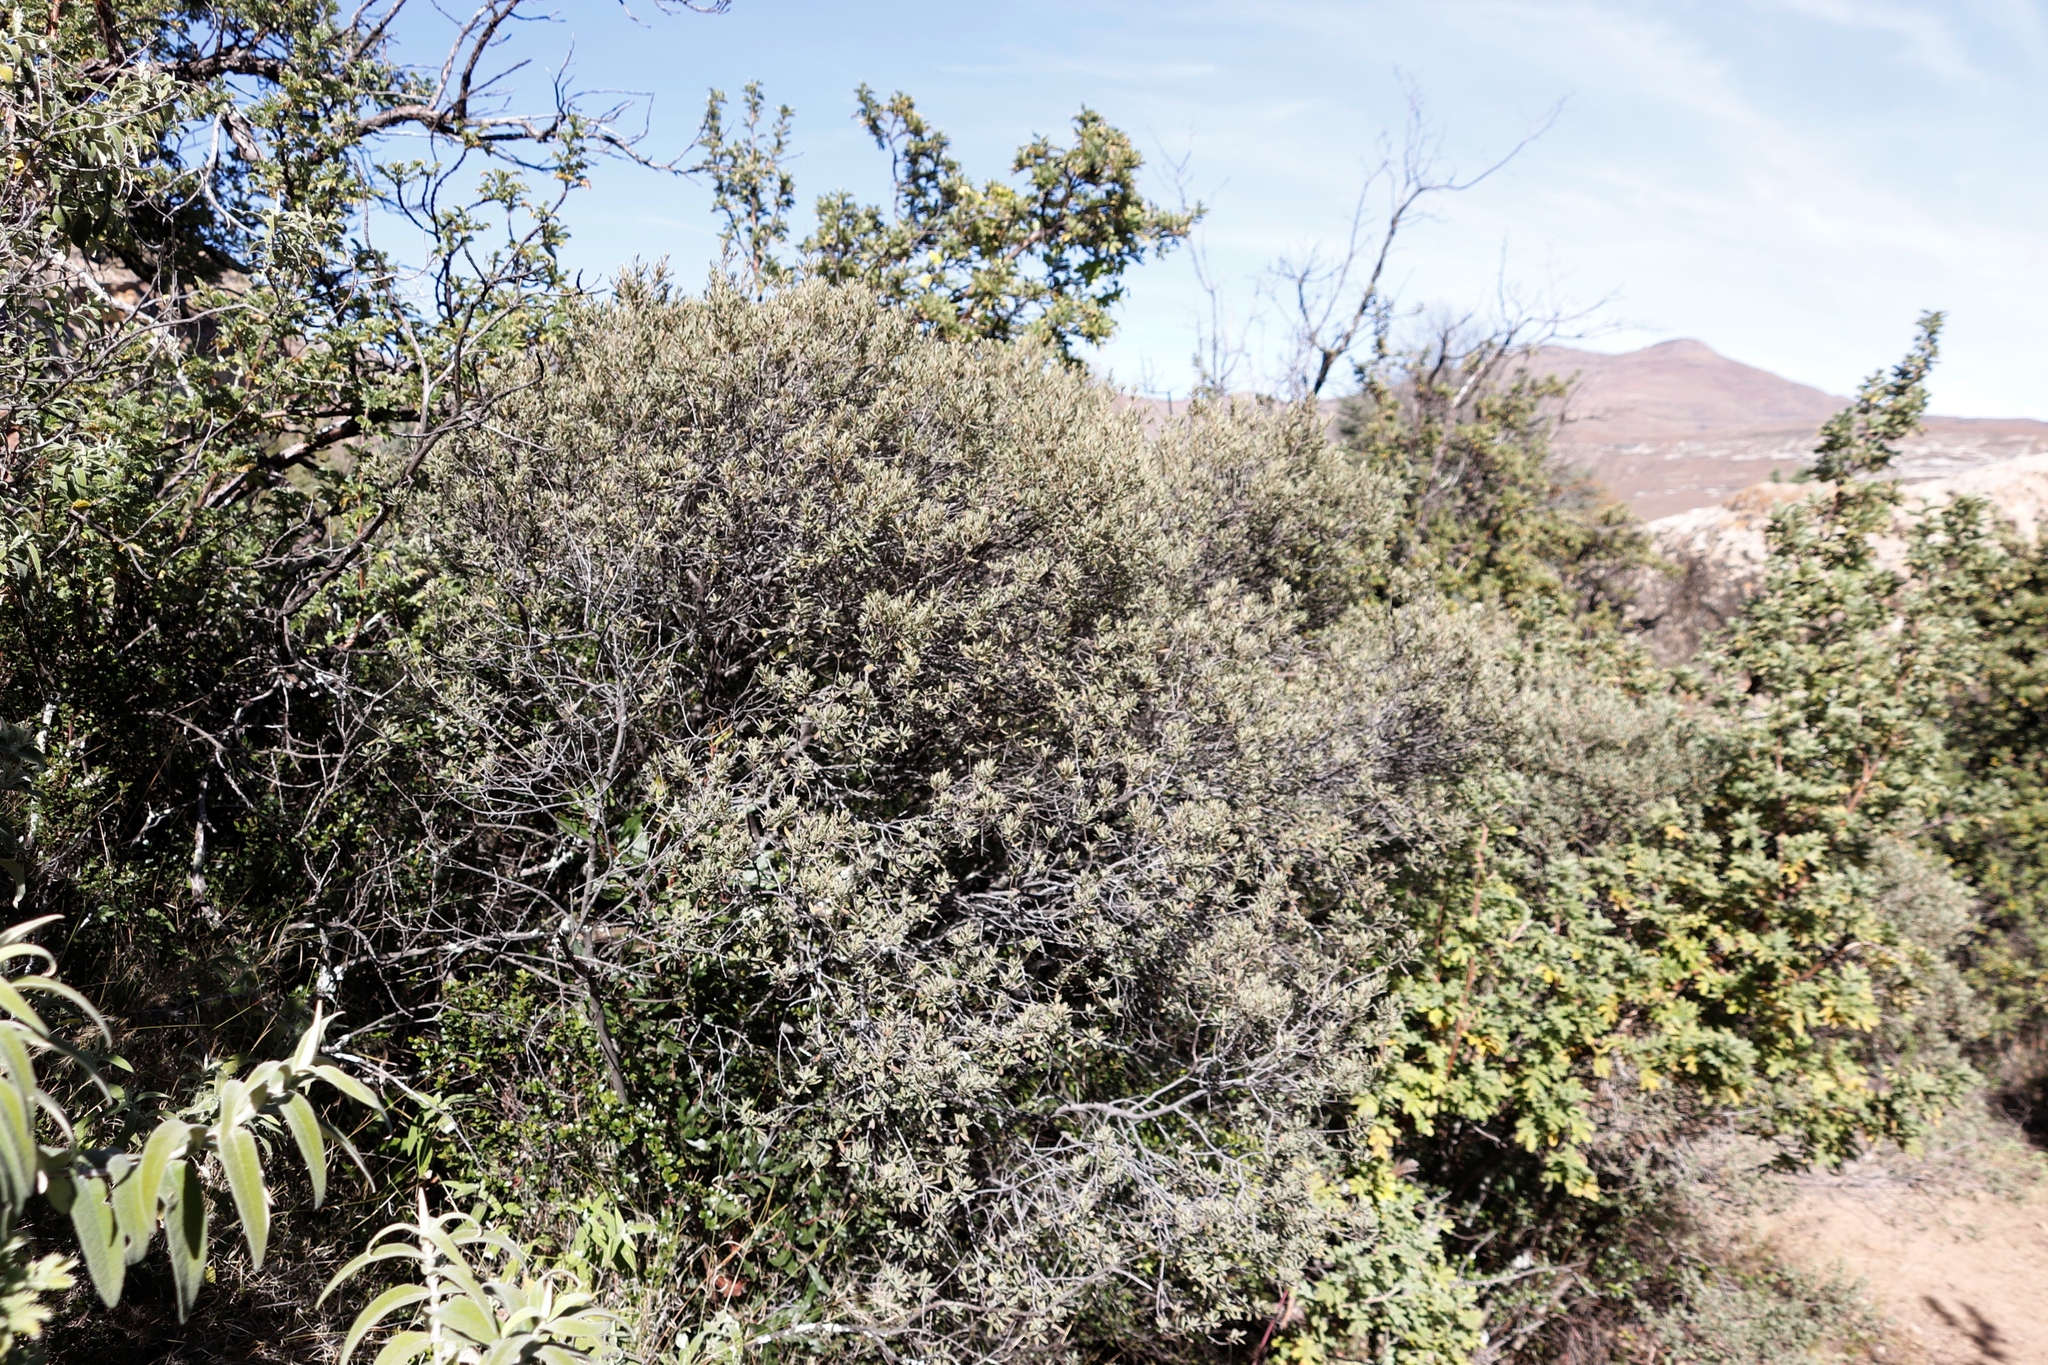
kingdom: Plantae
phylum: Tracheophyta
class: Magnoliopsida
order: Ericales
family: Ebenaceae
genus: Diospyros
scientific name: Diospyros pubescens
